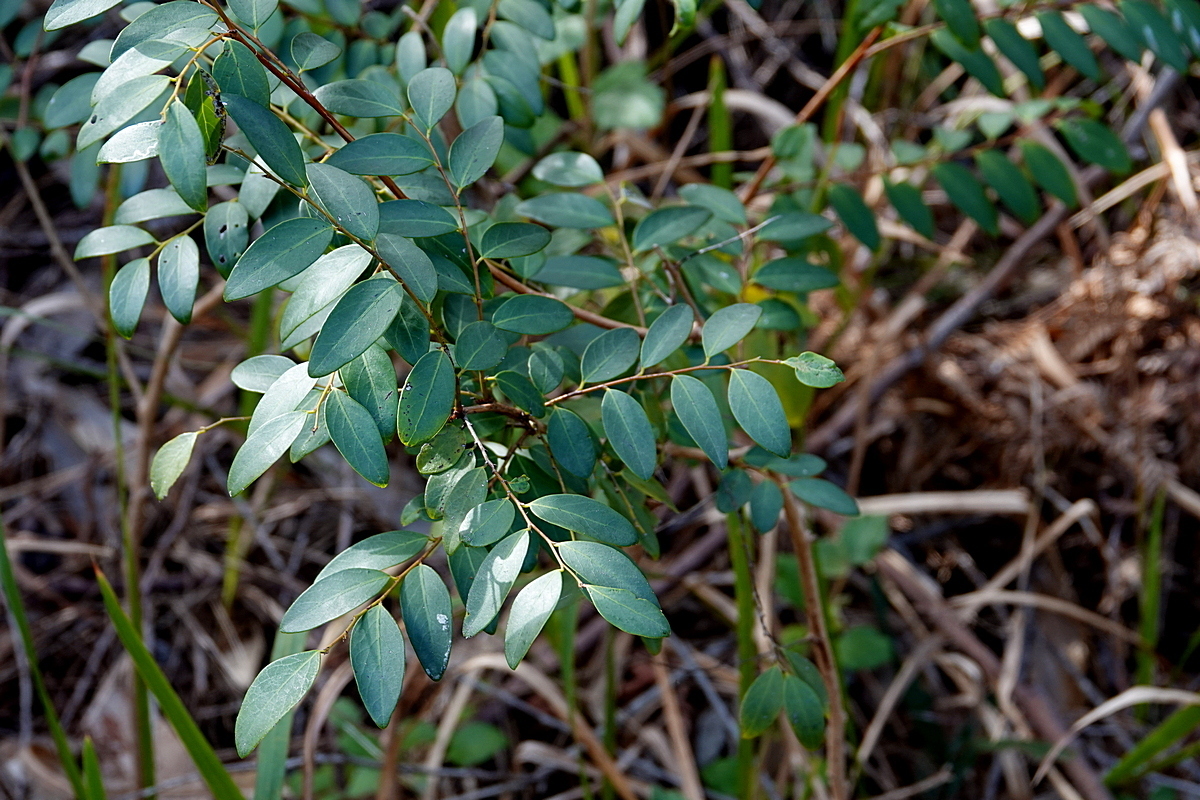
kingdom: Plantae
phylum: Tracheophyta
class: Magnoliopsida
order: Malpighiales
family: Phyllanthaceae
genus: Breynia
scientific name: Breynia oblongifolia
